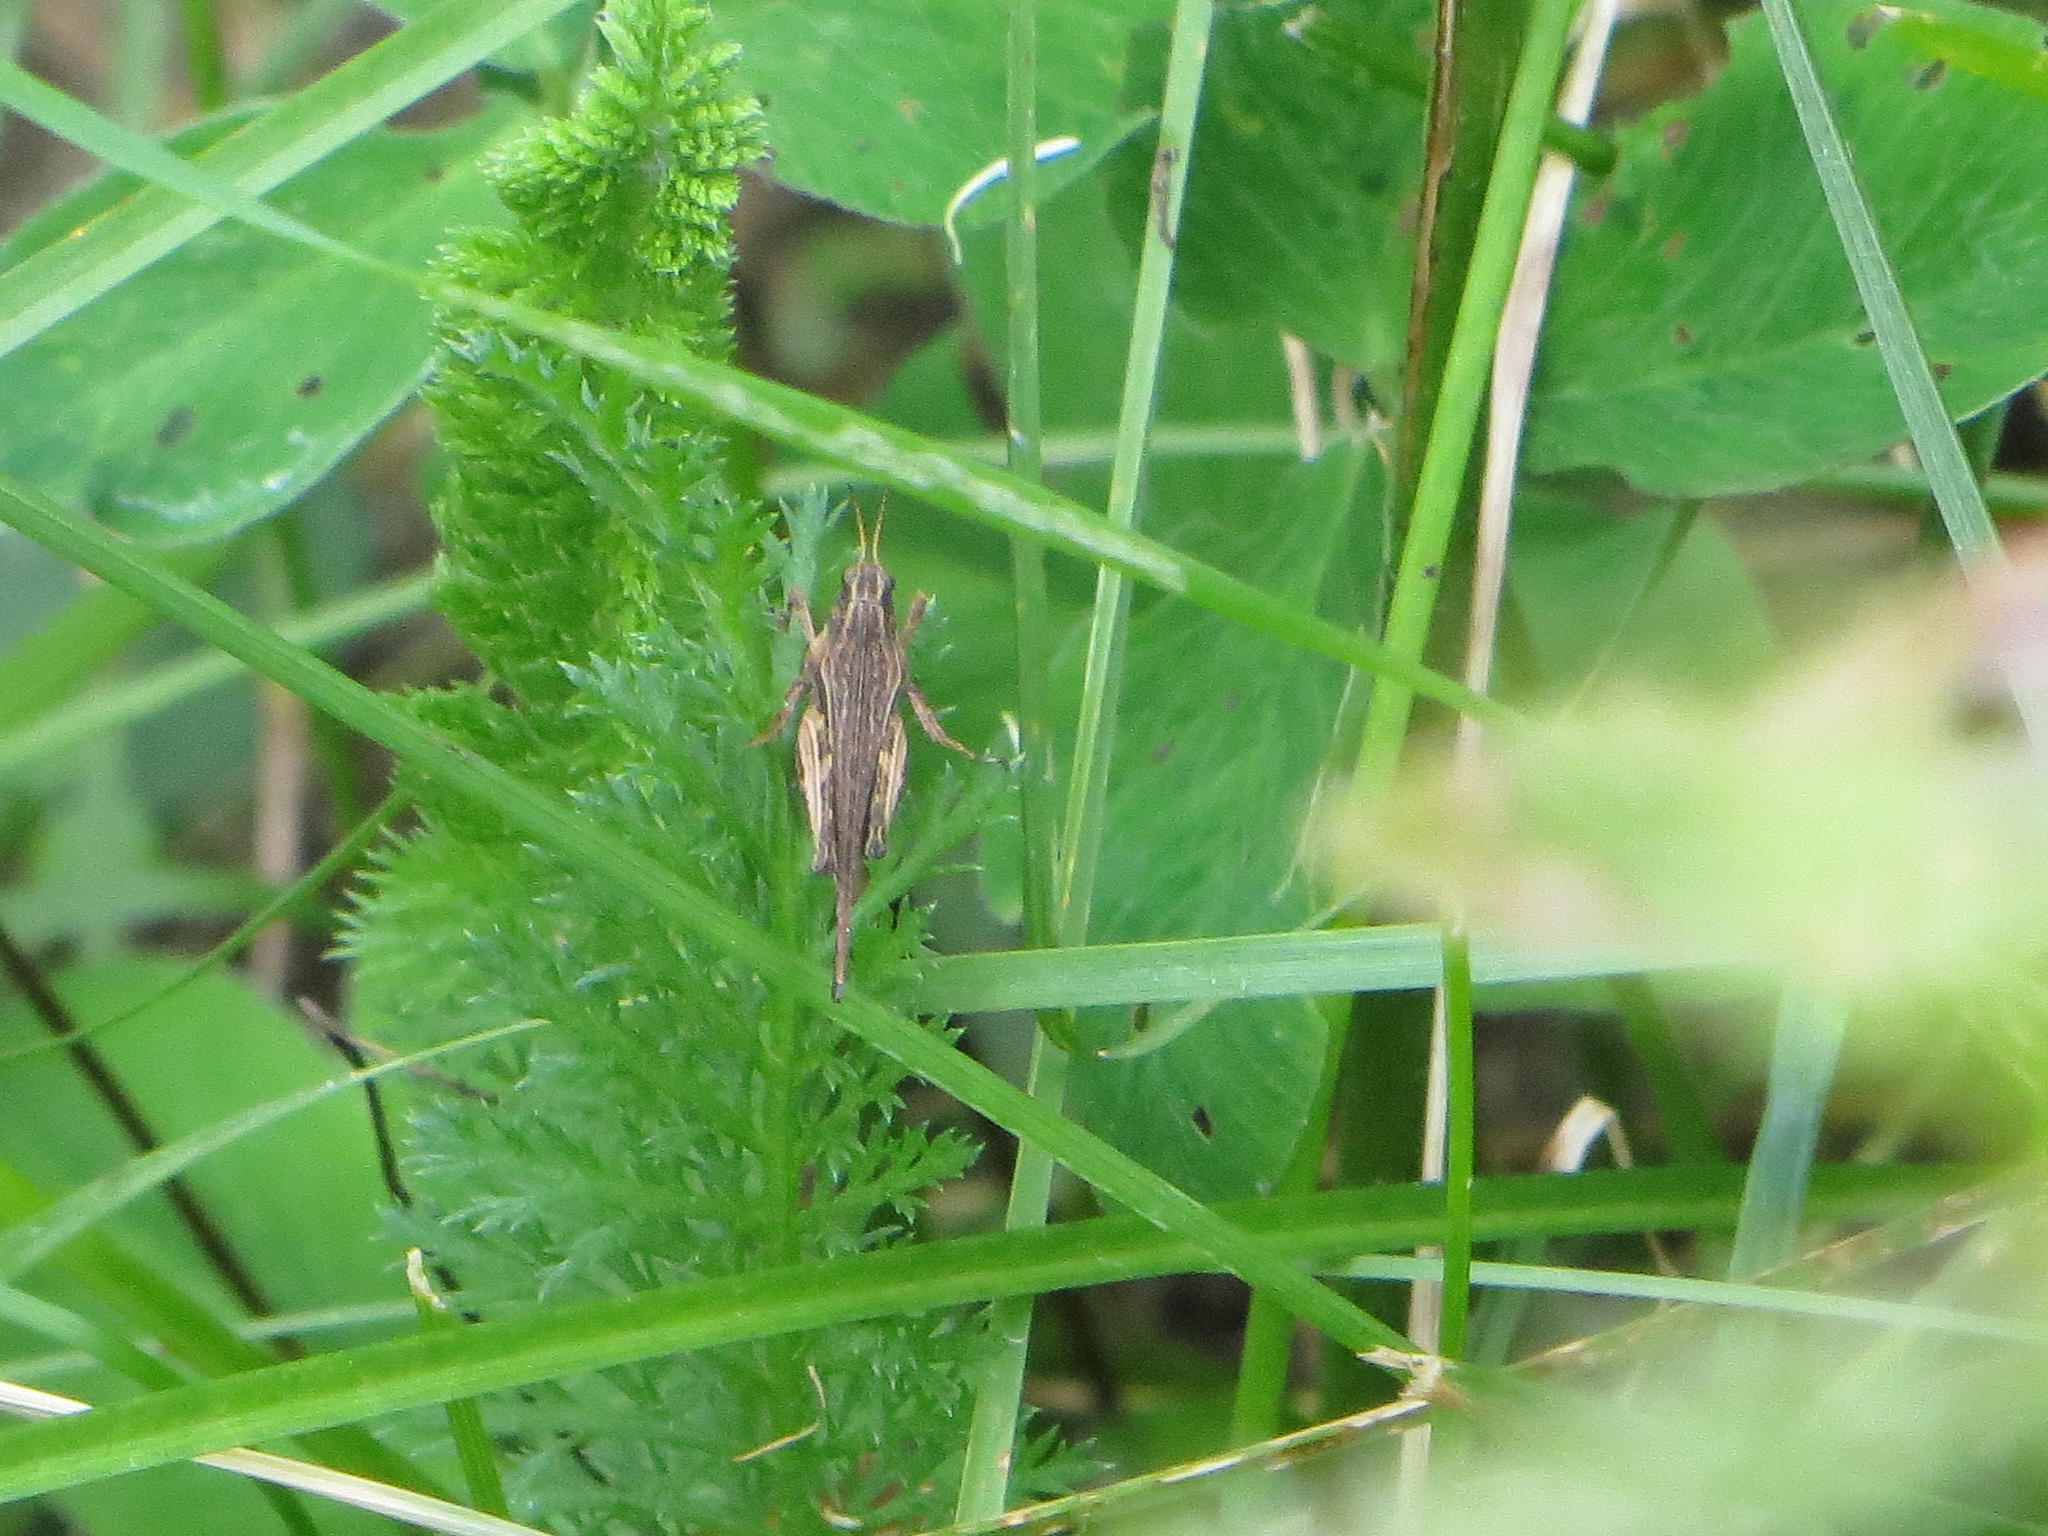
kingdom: Animalia
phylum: Arthropoda
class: Insecta
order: Orthoptera
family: Tetrigidae
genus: Tetrix
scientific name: Tetrix subulata
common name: Slender ground-hopper
